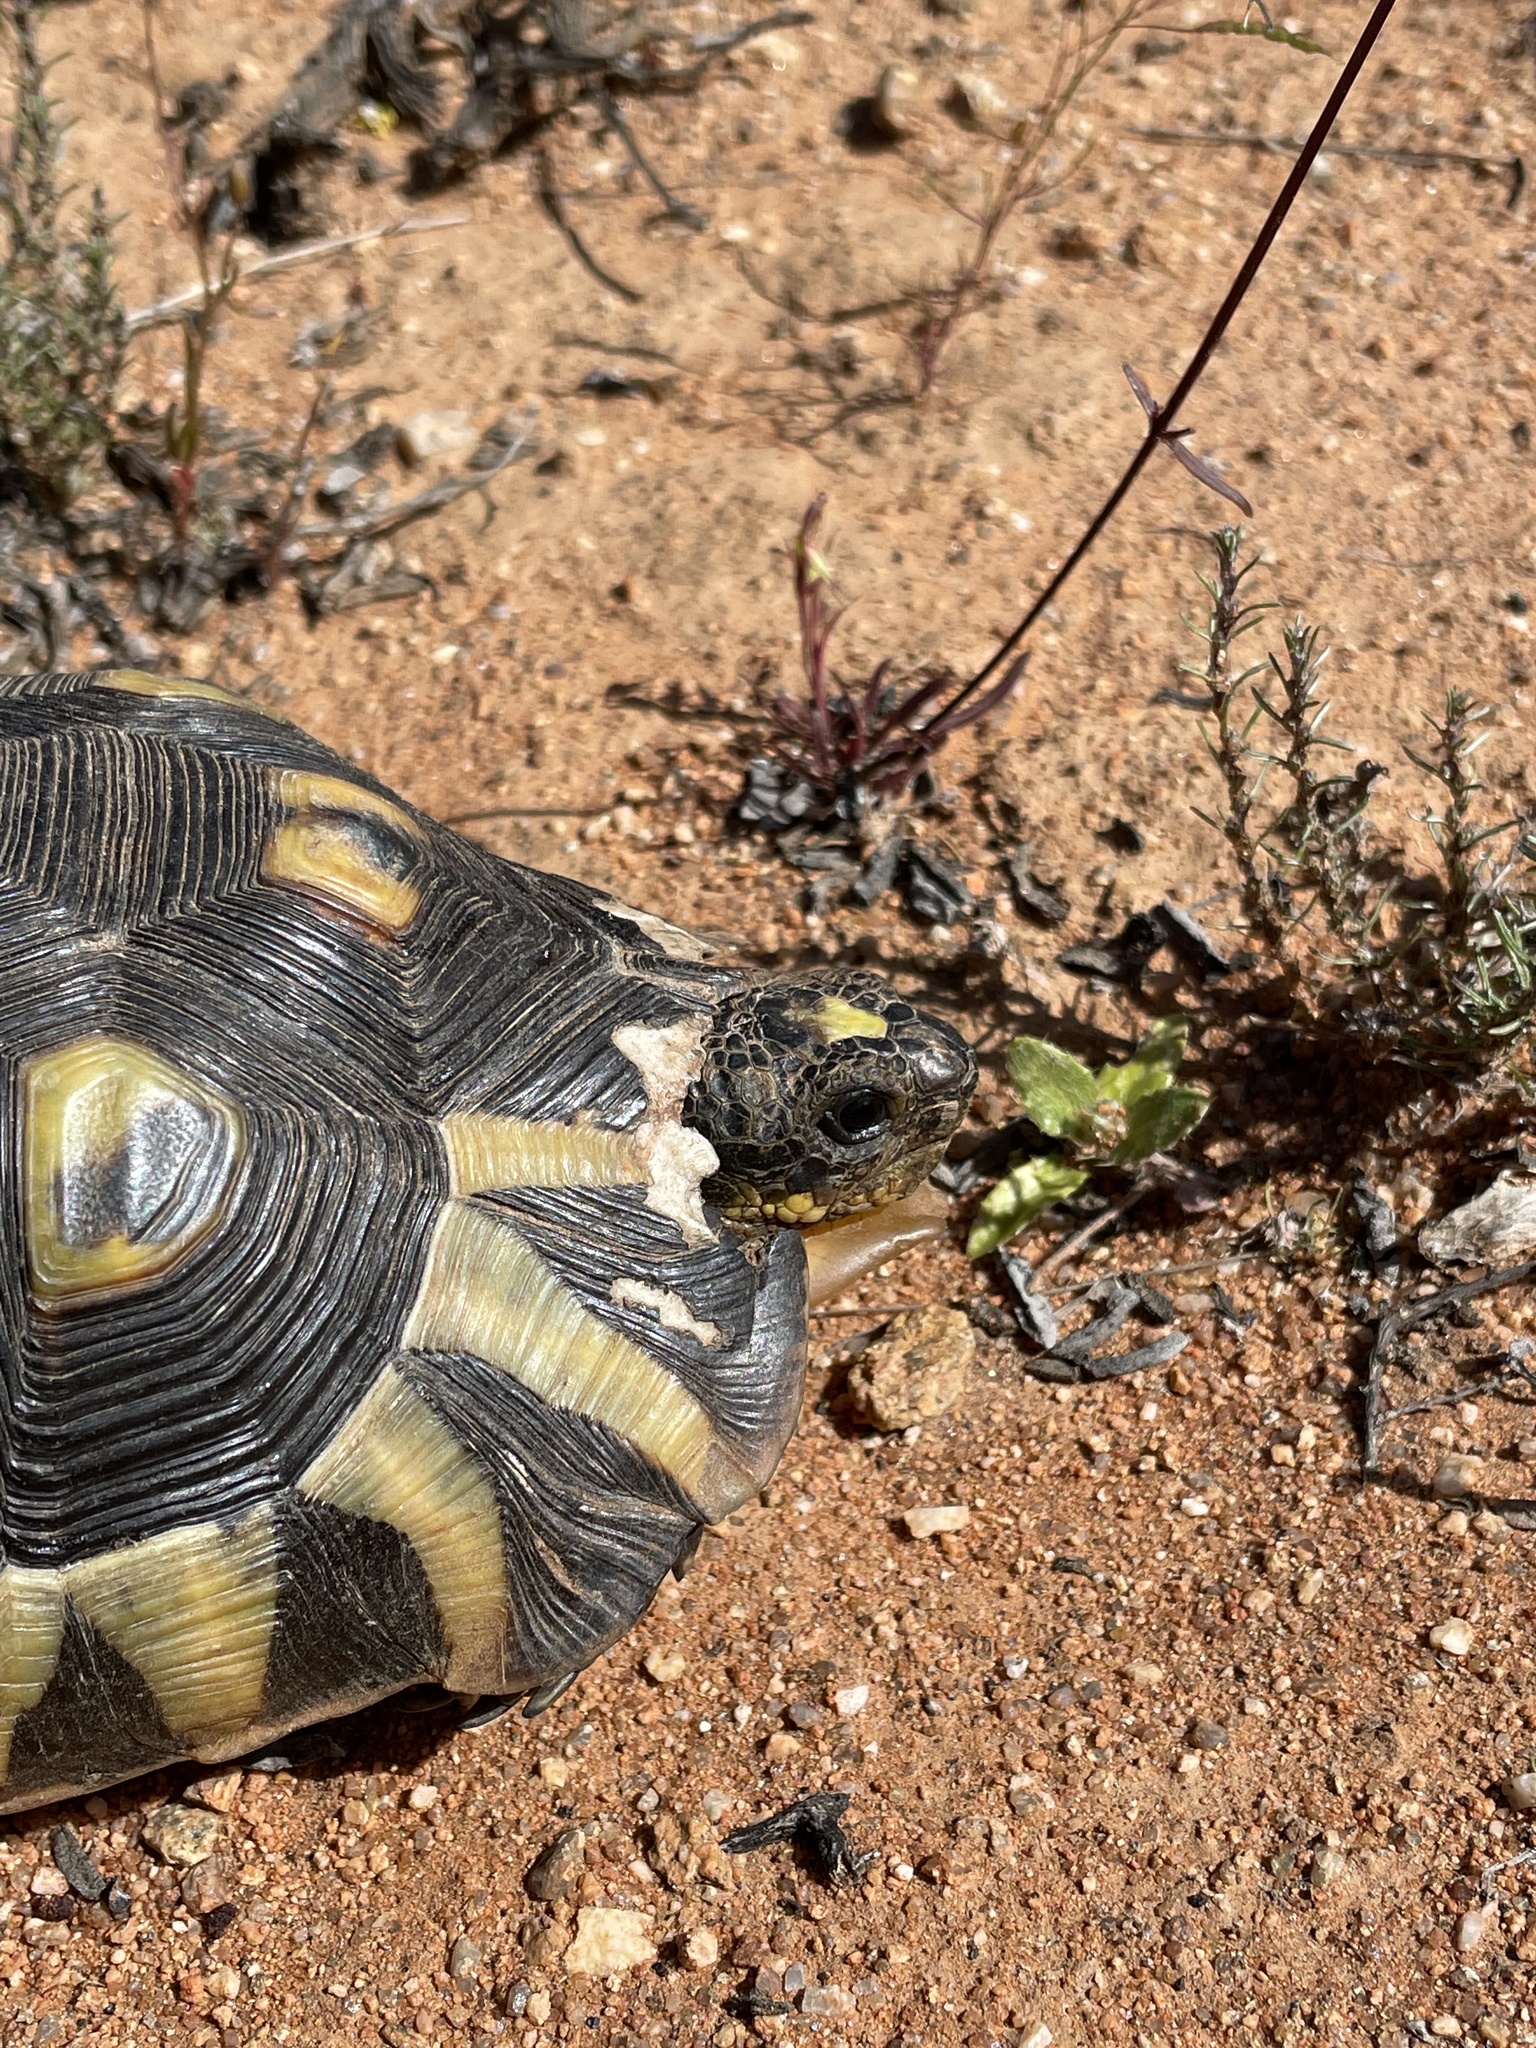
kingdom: Animalia
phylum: Chordata
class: Testudines
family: Testudinidae
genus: Chersina
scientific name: Chersina angulata
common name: South african bowsprit tortoise
